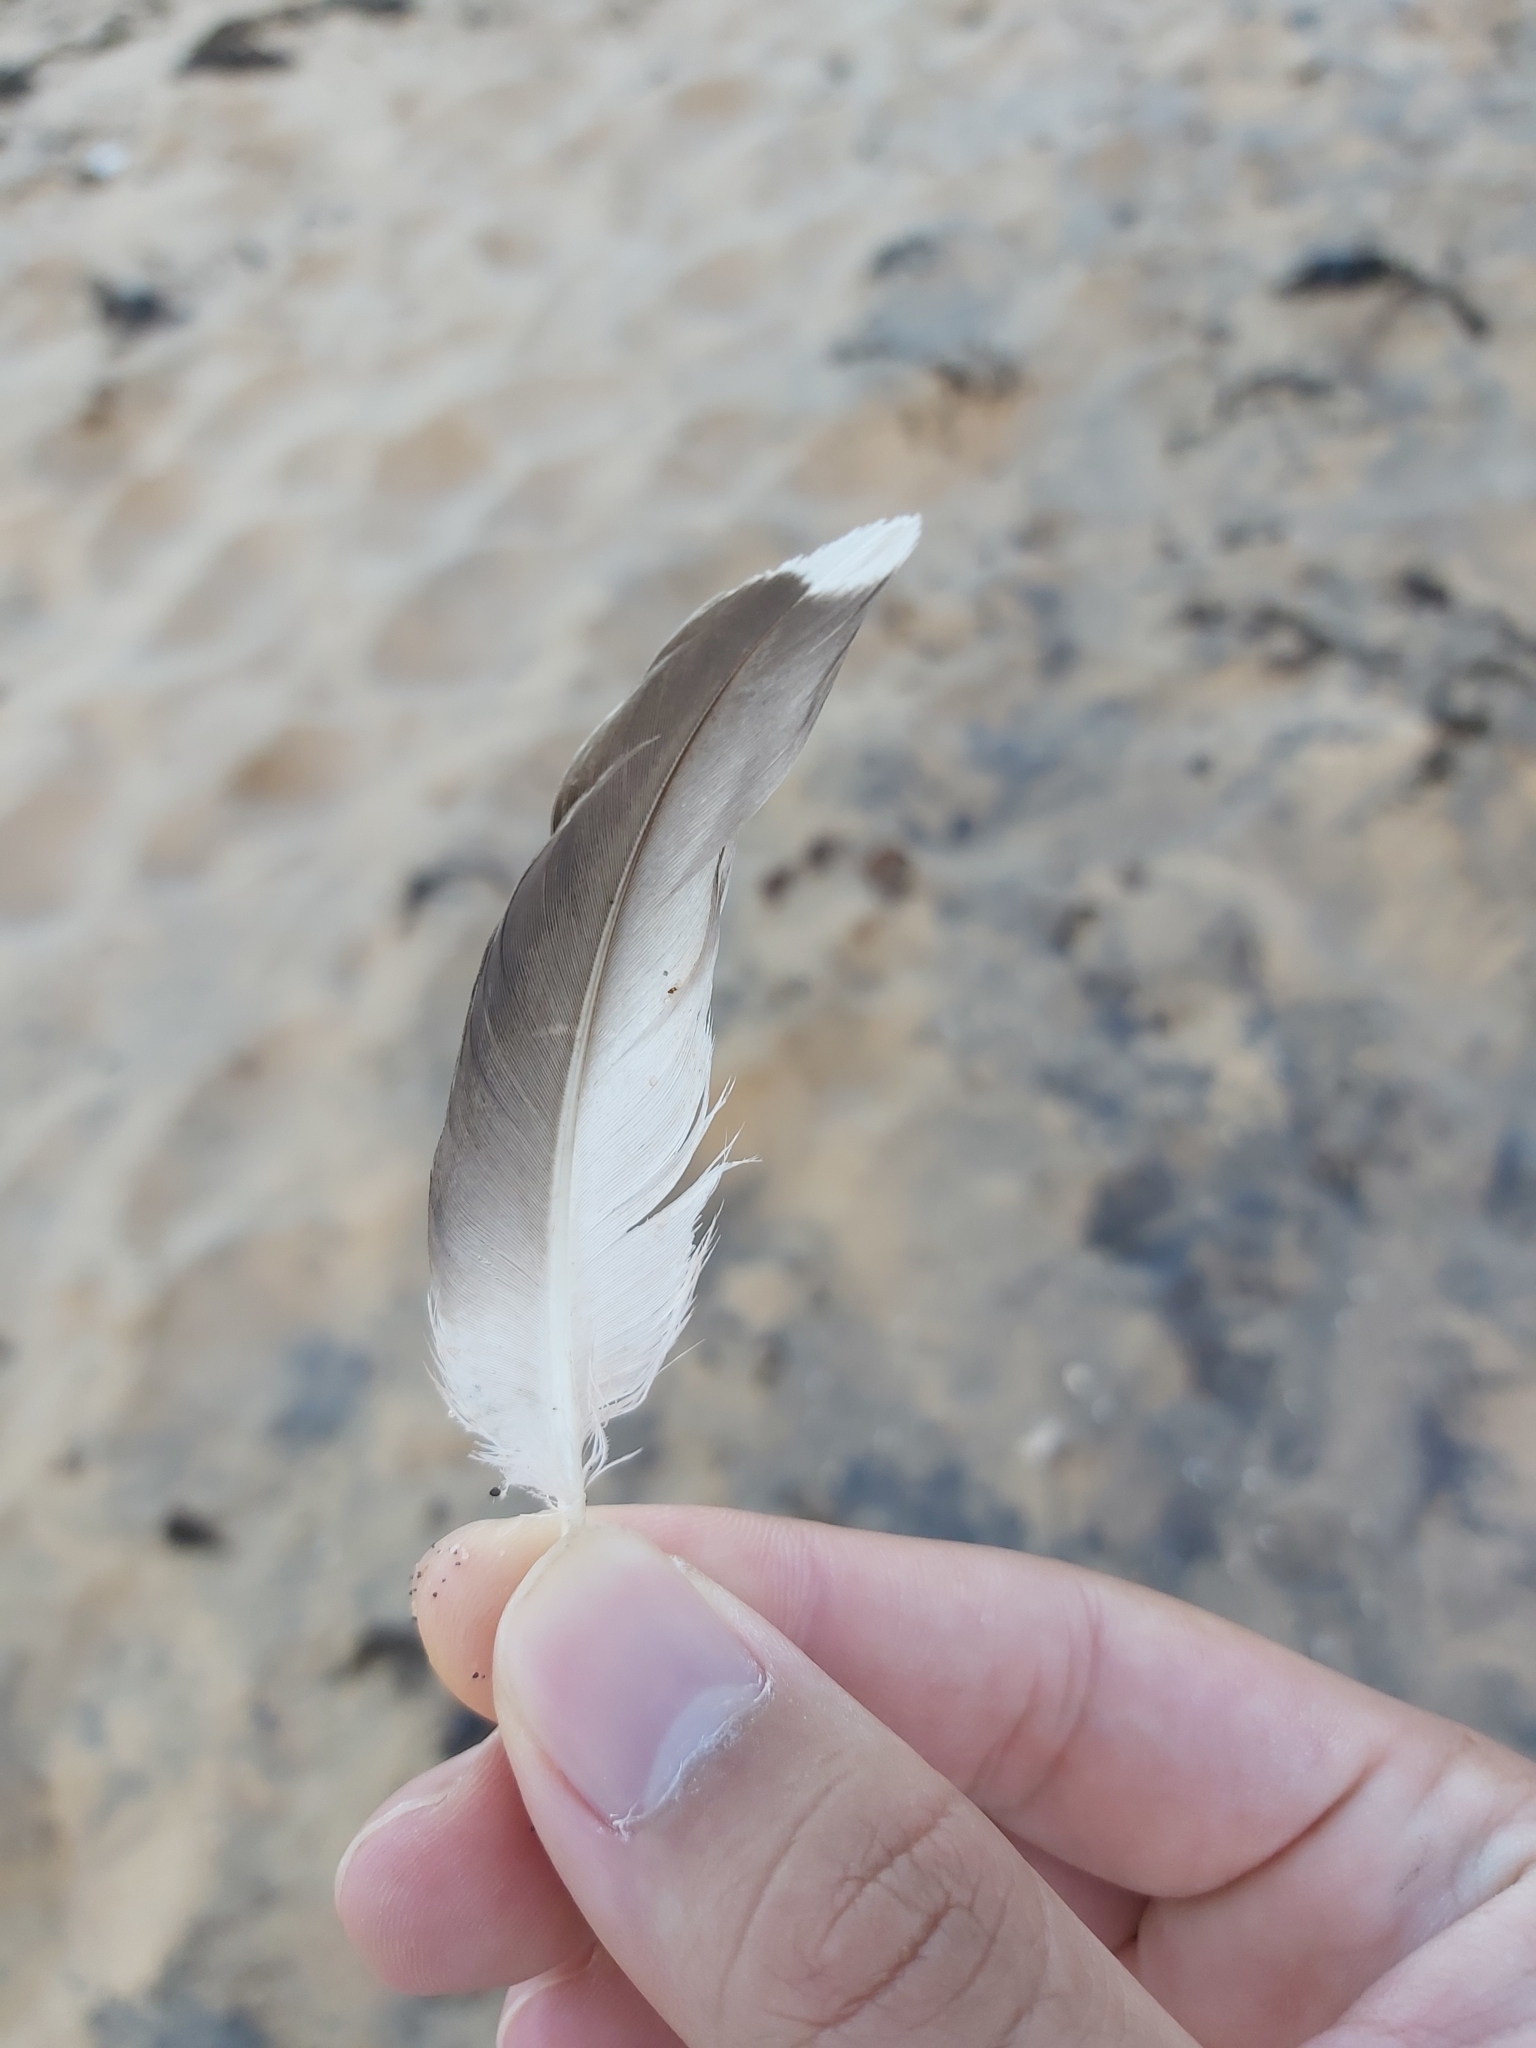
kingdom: Animalia
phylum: Chordata
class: Aves
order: Suliformes
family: Sulidae
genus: Morus
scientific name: Morus serrator
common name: Australasian gannet
